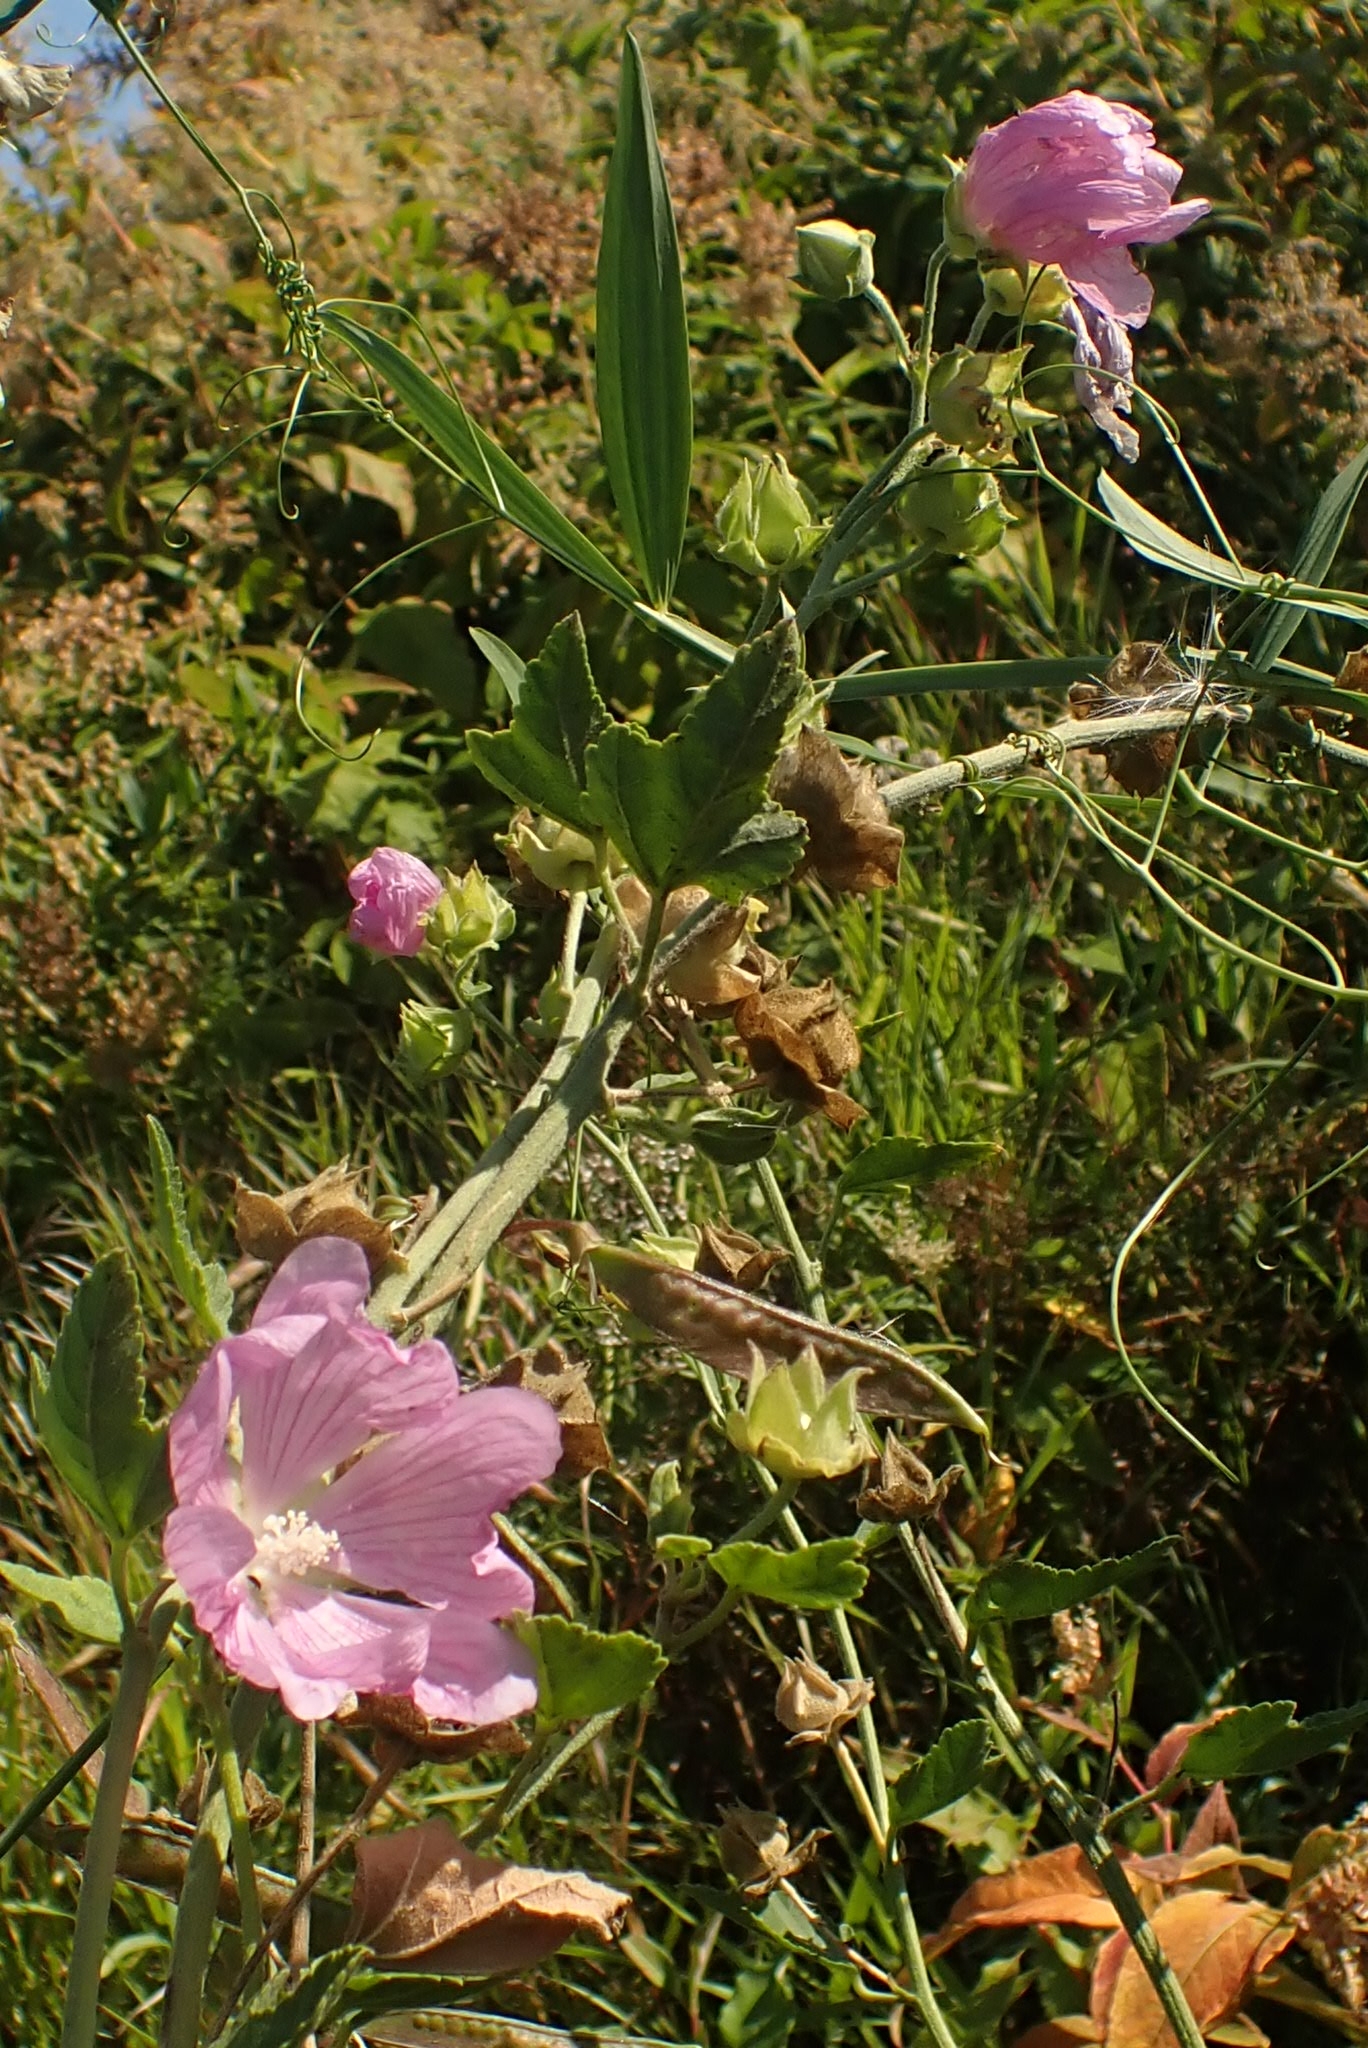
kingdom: Plantae
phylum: Tracheophyta
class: Magnoliopsida
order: Malvales
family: Malvaceae
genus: Malva
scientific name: Malva thuringiaca
